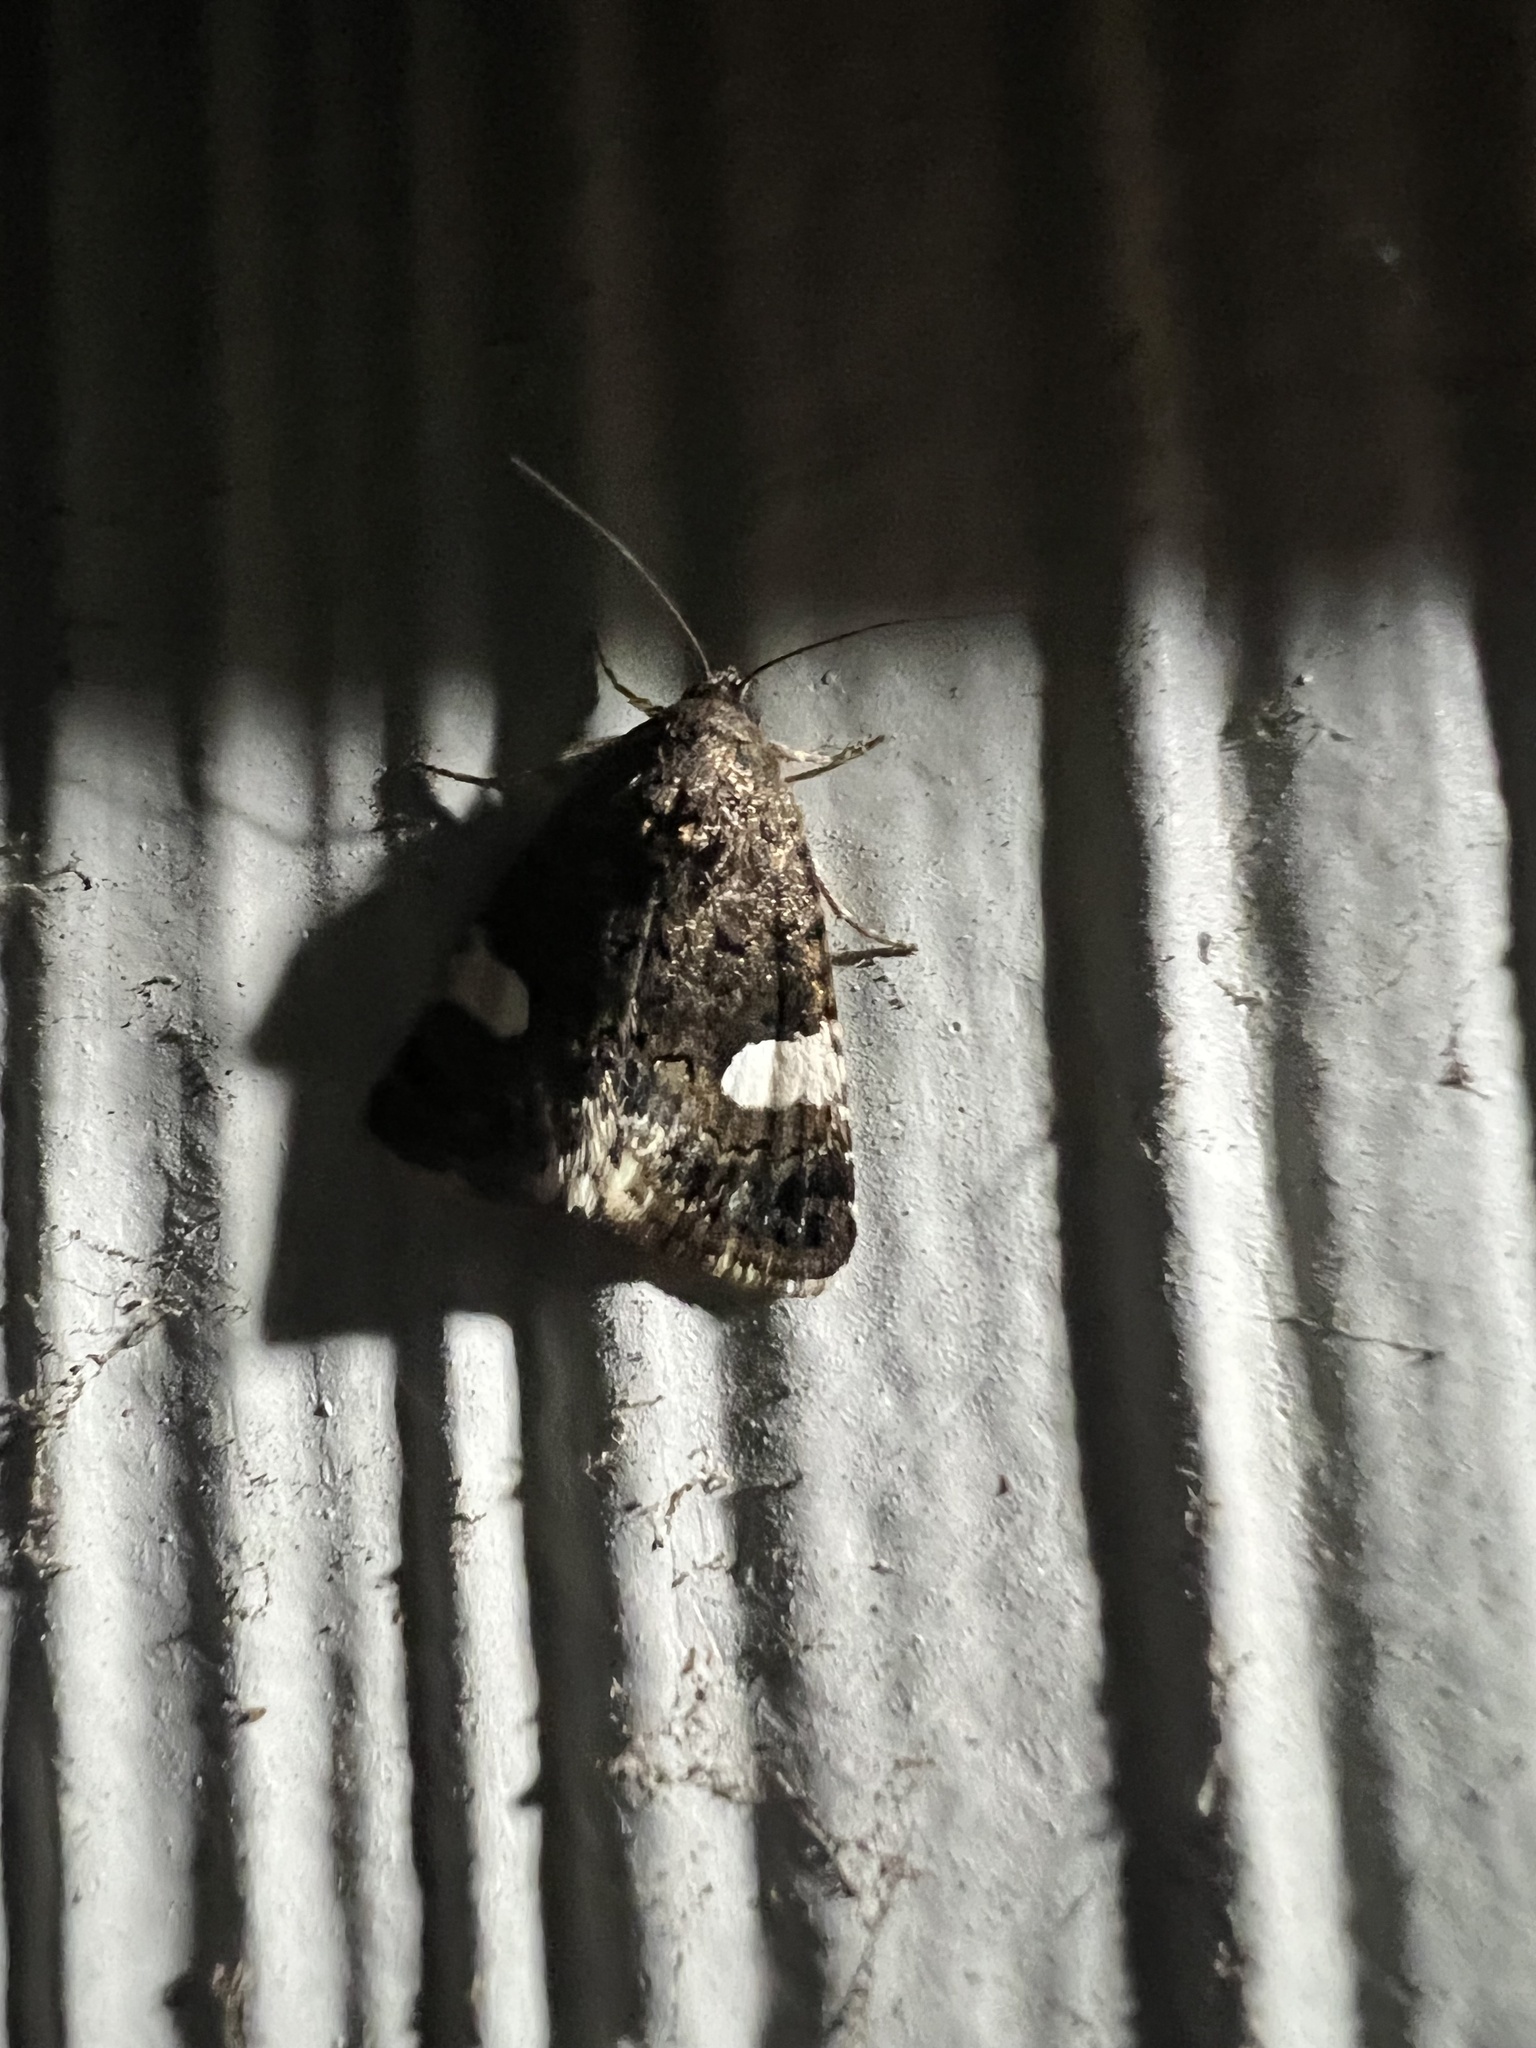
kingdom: Animalia
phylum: Arthropoda
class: Insecta
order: Lepidoptera
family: Erebidae
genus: Tyta
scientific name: Tyta luctuosa
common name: Four-spotted
